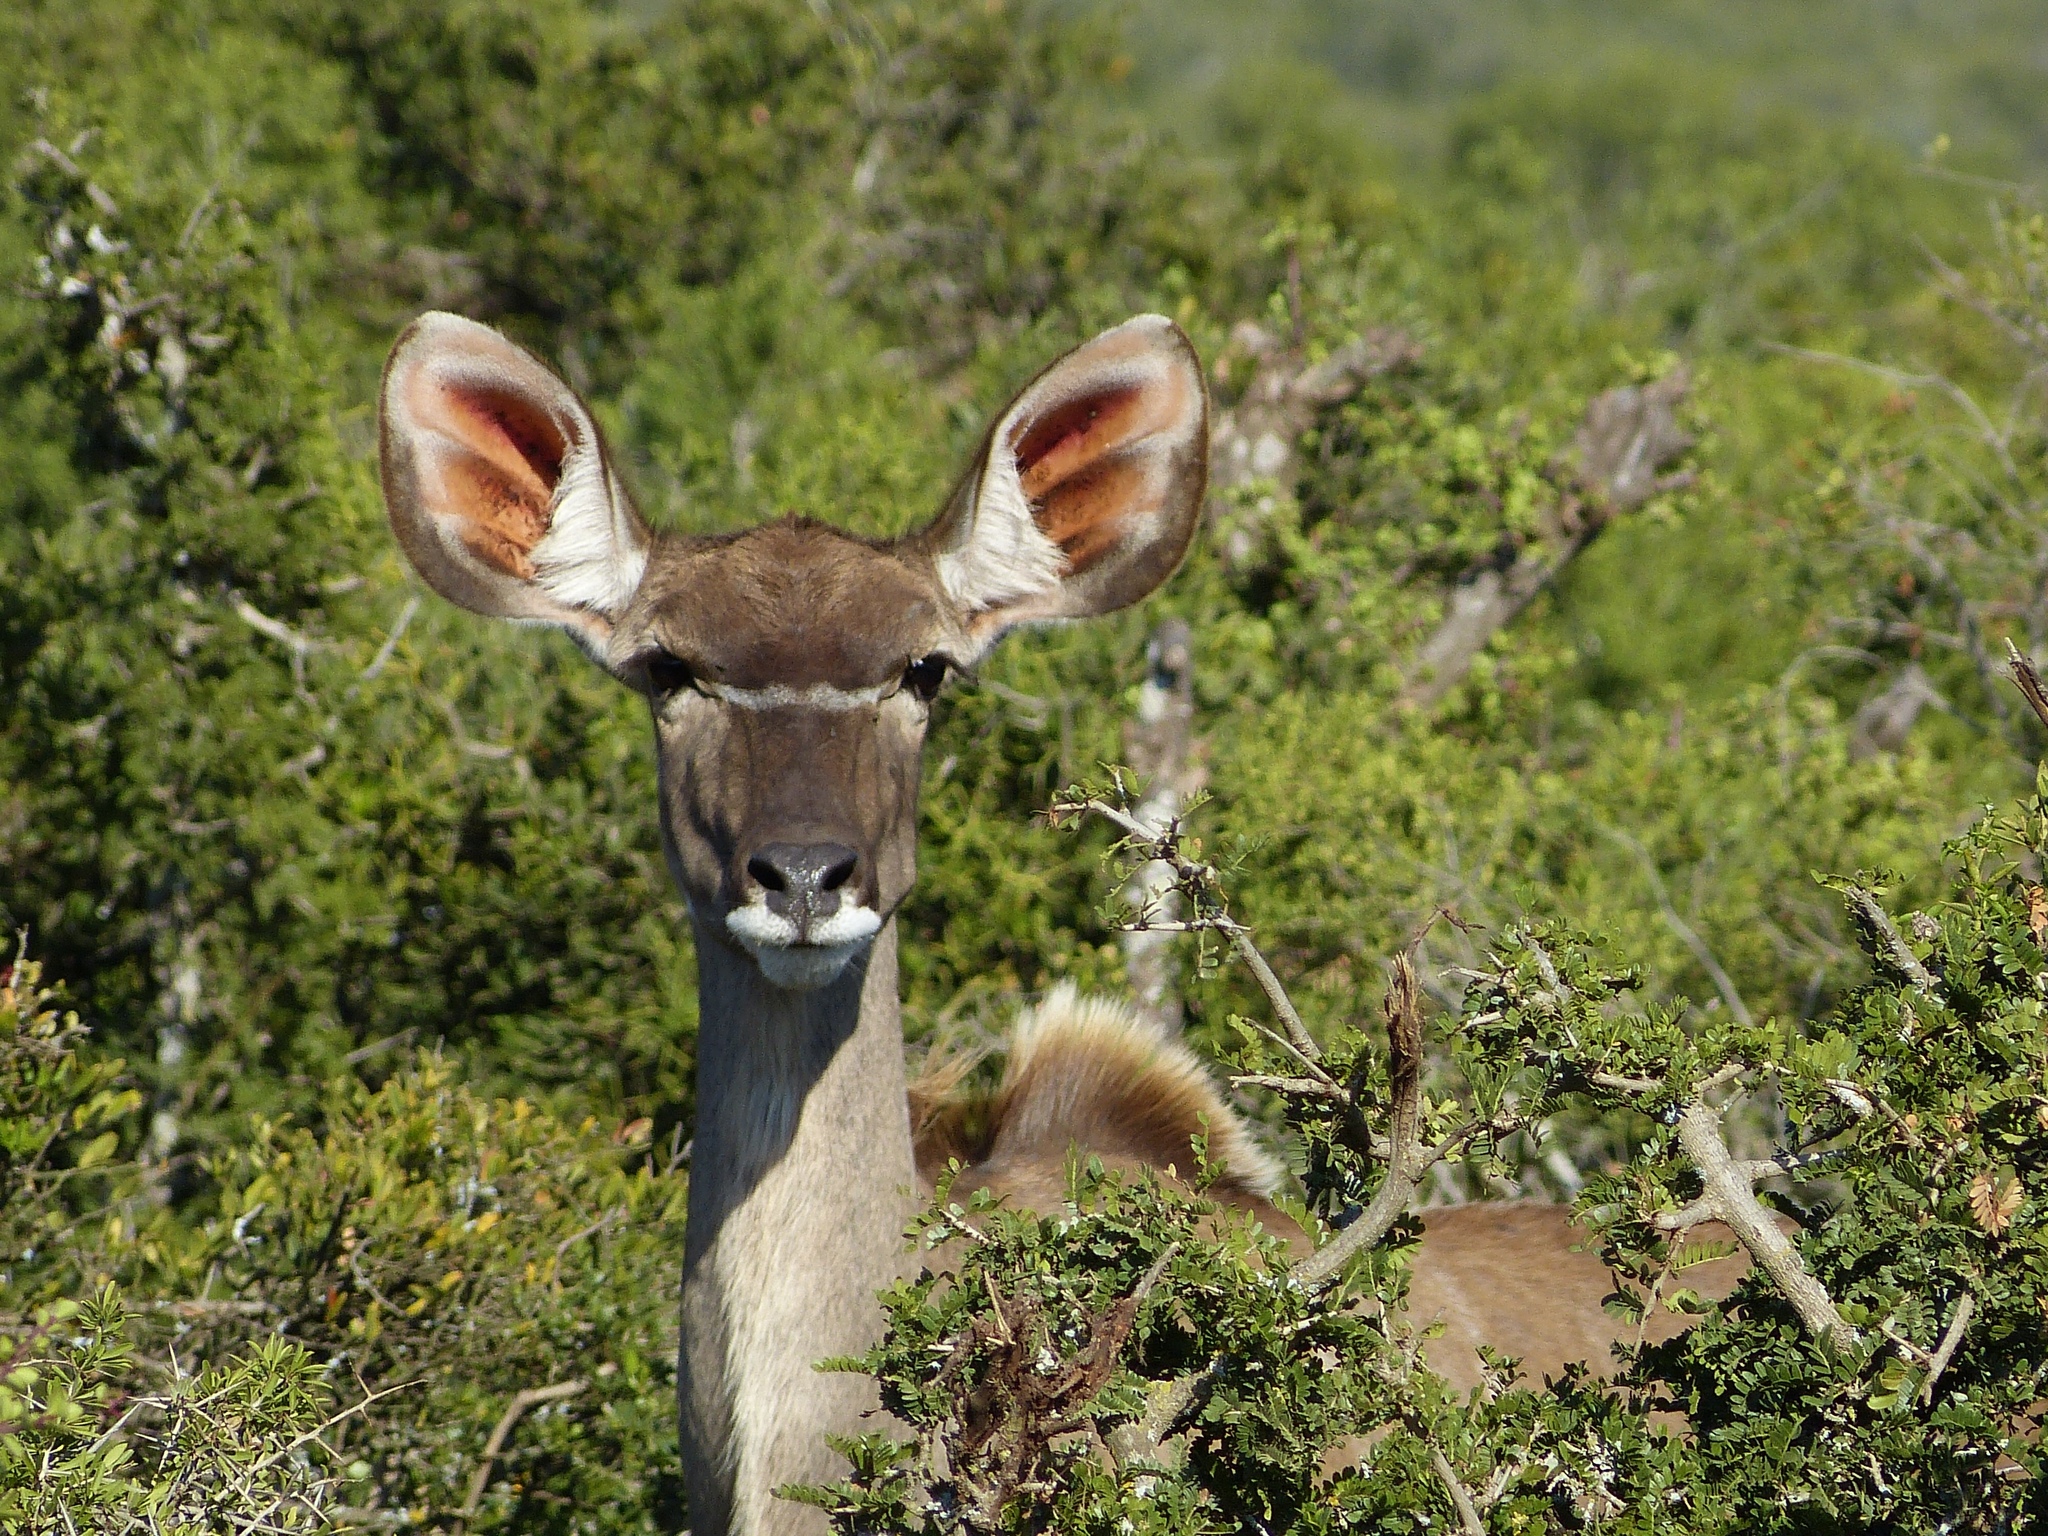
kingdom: Animalia
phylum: Chordata
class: Mammalia
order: Artiodactyla
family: Bovidae
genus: Tragelaphus
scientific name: Tragelaphus strepsiceros
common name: Greater kudu
